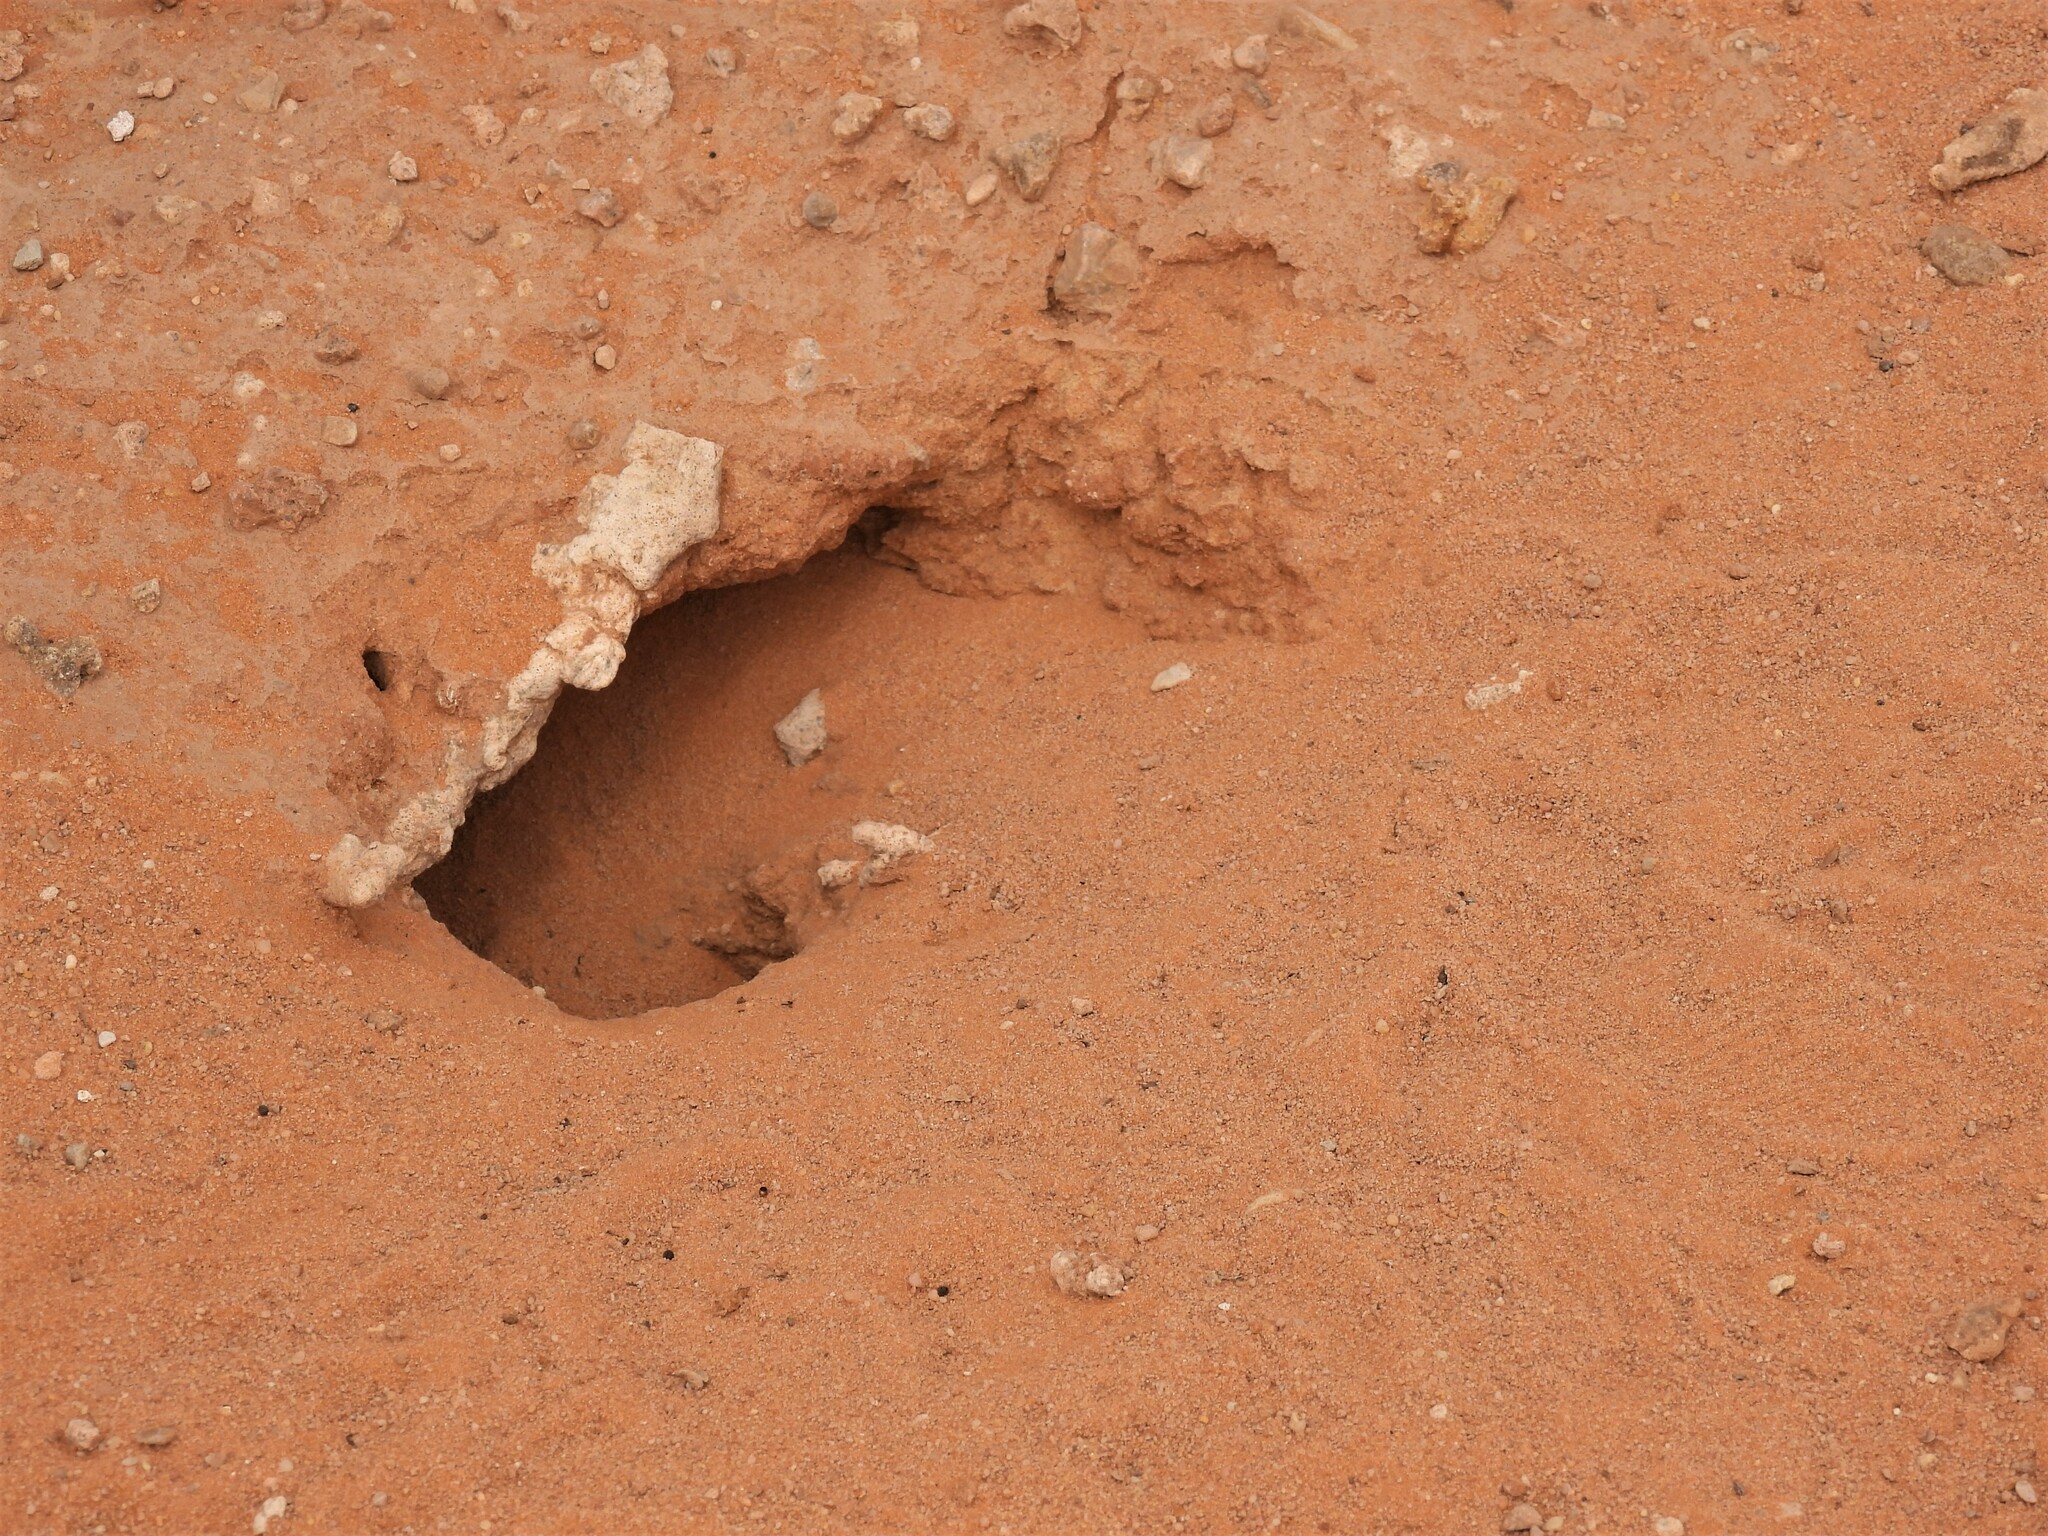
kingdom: Animalia
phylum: Chordata
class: Squamata
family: Agamidae
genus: Uromastyx
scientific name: Uromastyx aegyptia
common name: Egyptian mastigure
